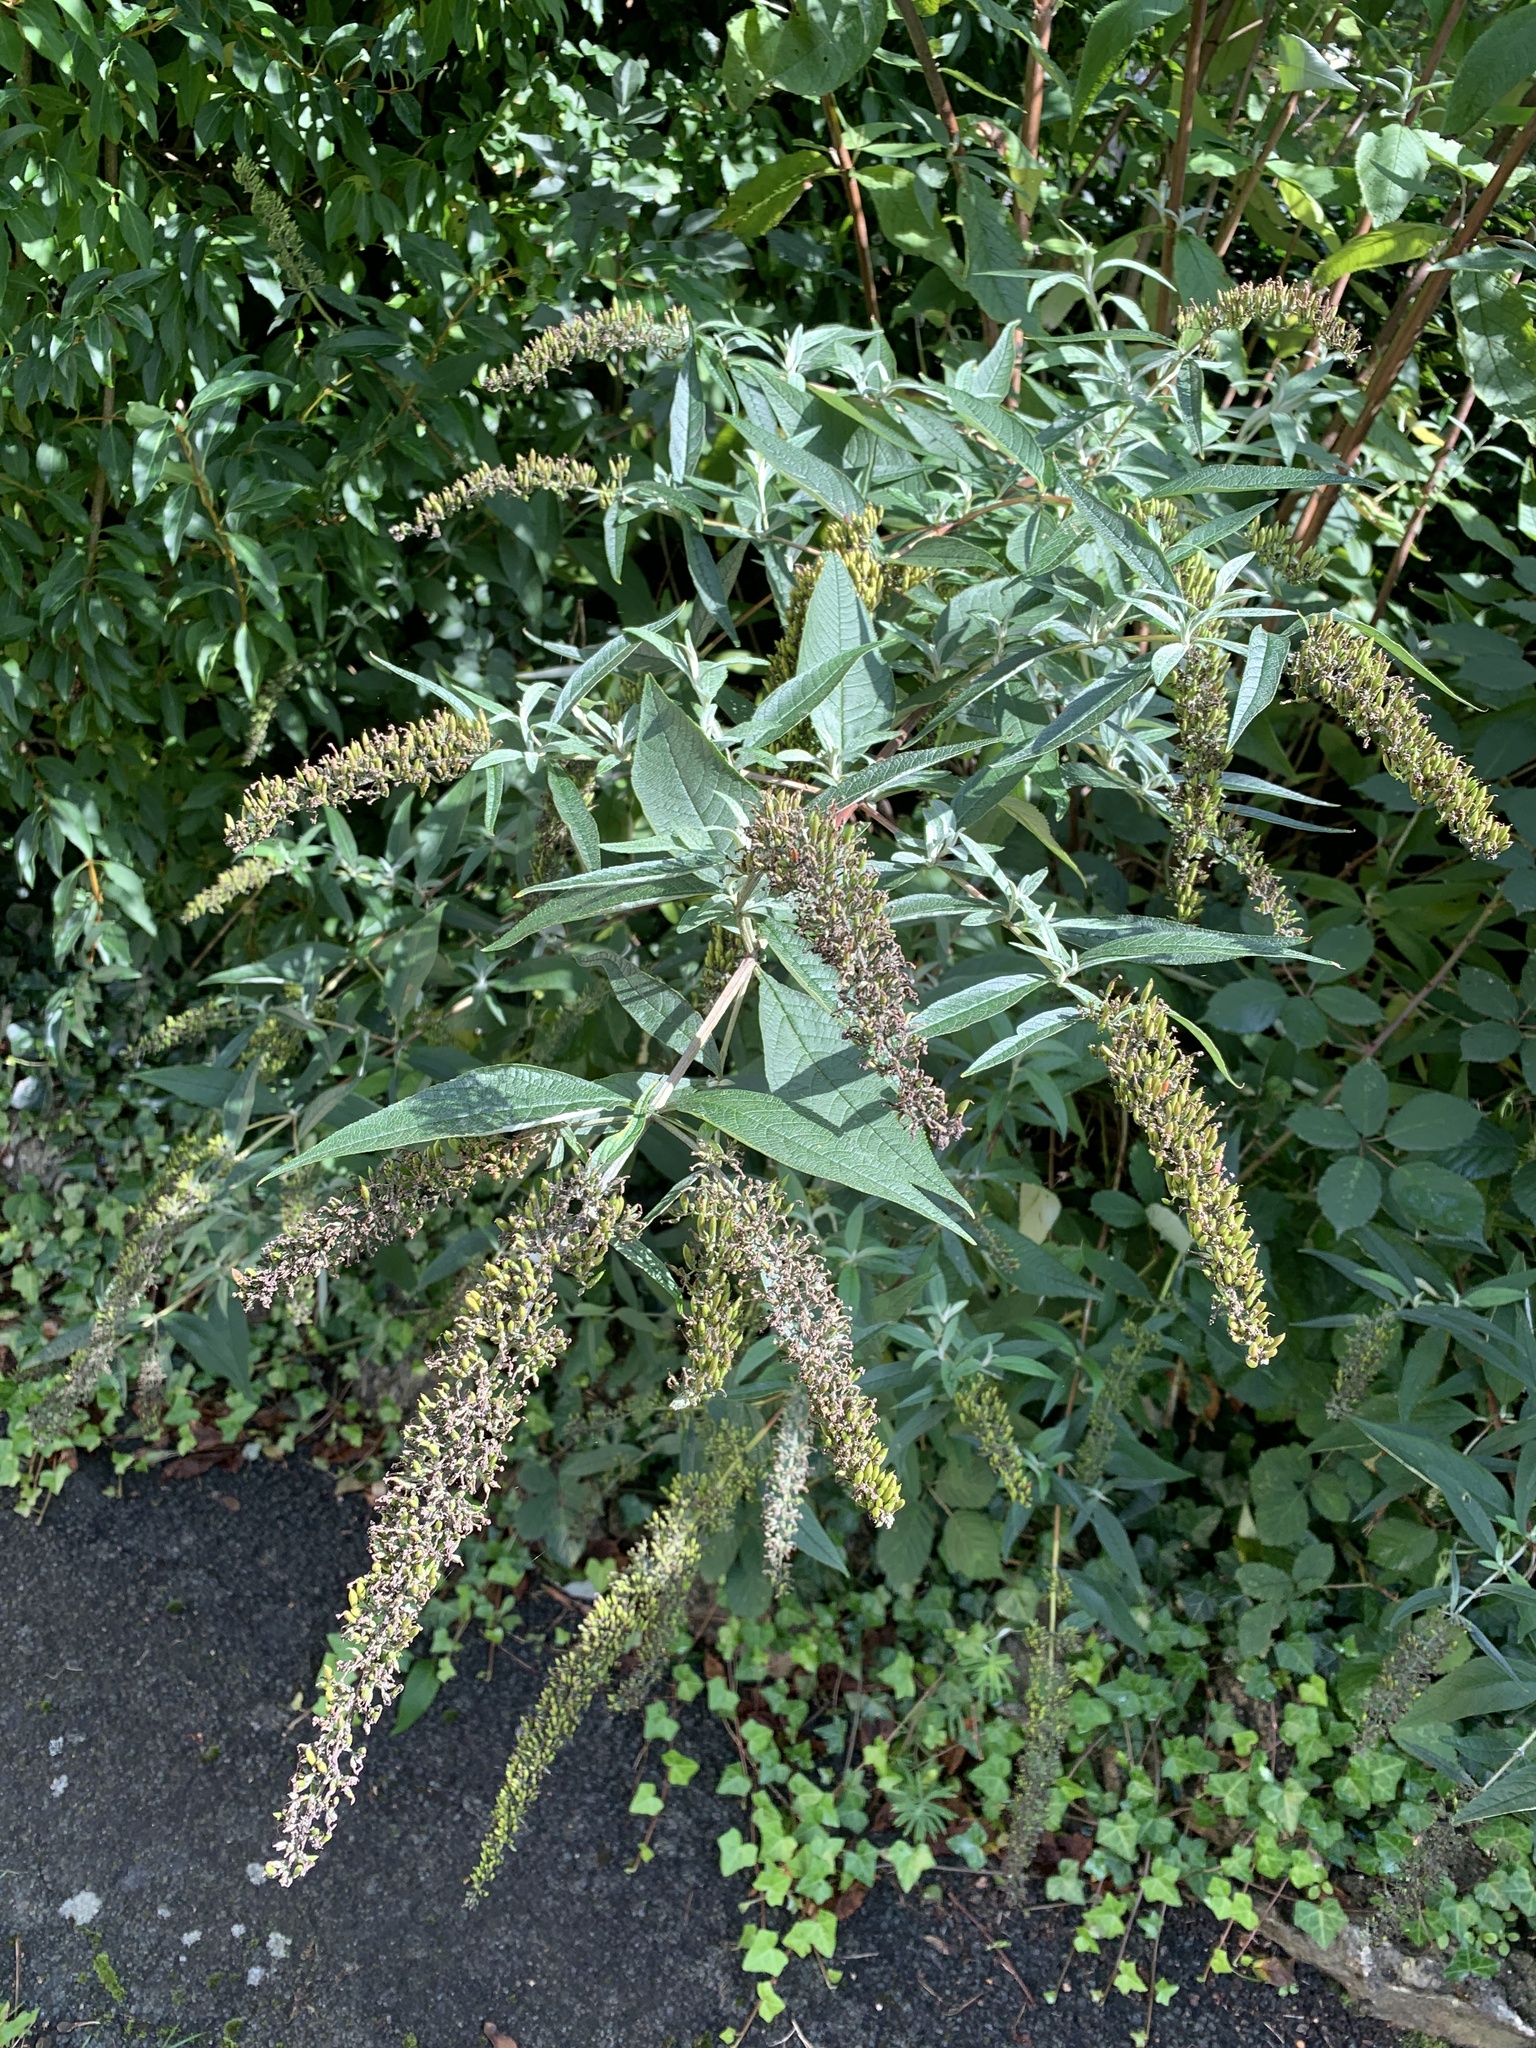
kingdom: Plantae
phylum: Tracheophyta
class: Magnoliopsida
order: Lamiales
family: Scrophulariaceae
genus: Buddleja
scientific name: Buddleja davidii
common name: Butterfly-bush
